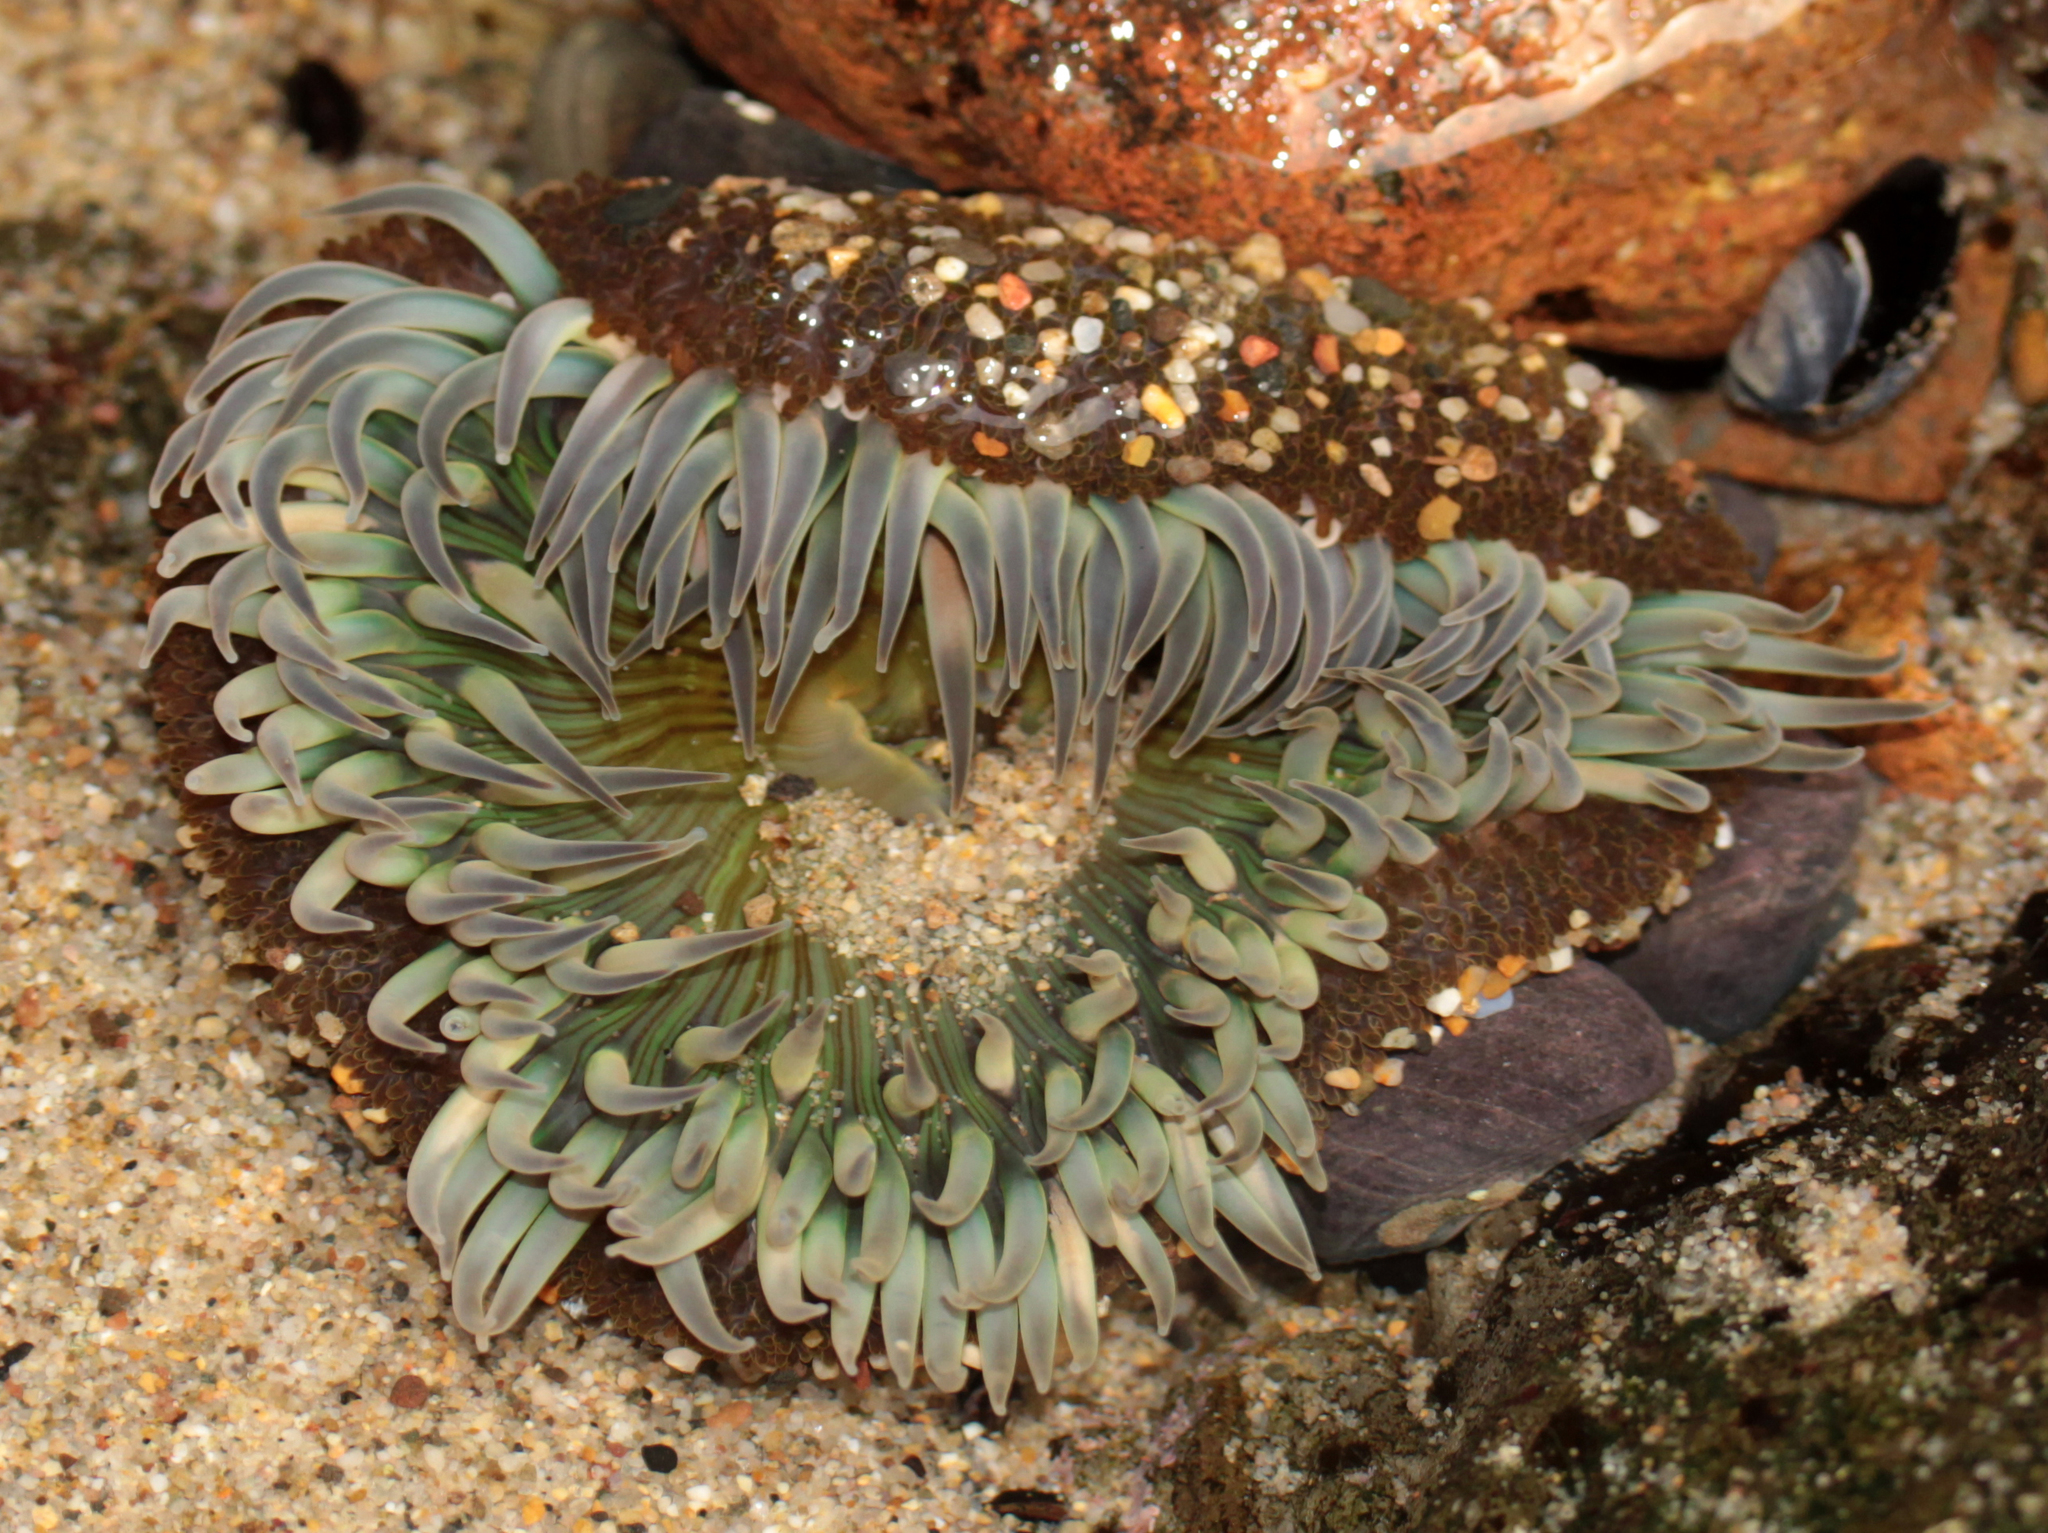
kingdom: Animalia
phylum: Cnidaria
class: Anthozoa
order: Actiniaria
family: Actiniidae
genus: Anthopleura
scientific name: Anthopleura sola
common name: Sun anemone
